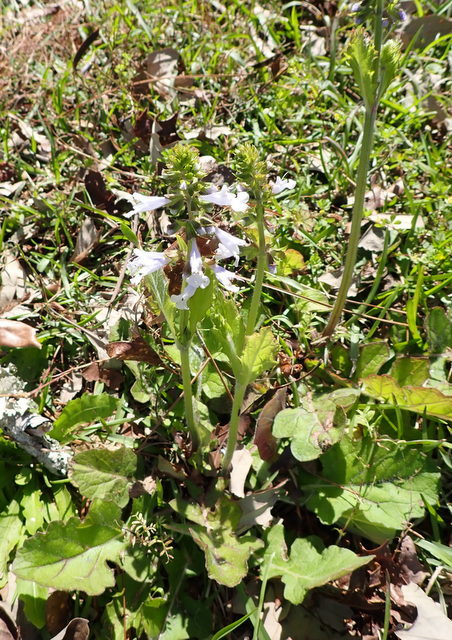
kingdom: Plantae
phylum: Tracheophyta
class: Magnoliopsida
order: Lamiales
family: Lamiaceae
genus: Salvia
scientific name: Salvia lyrata
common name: Cancerweed
